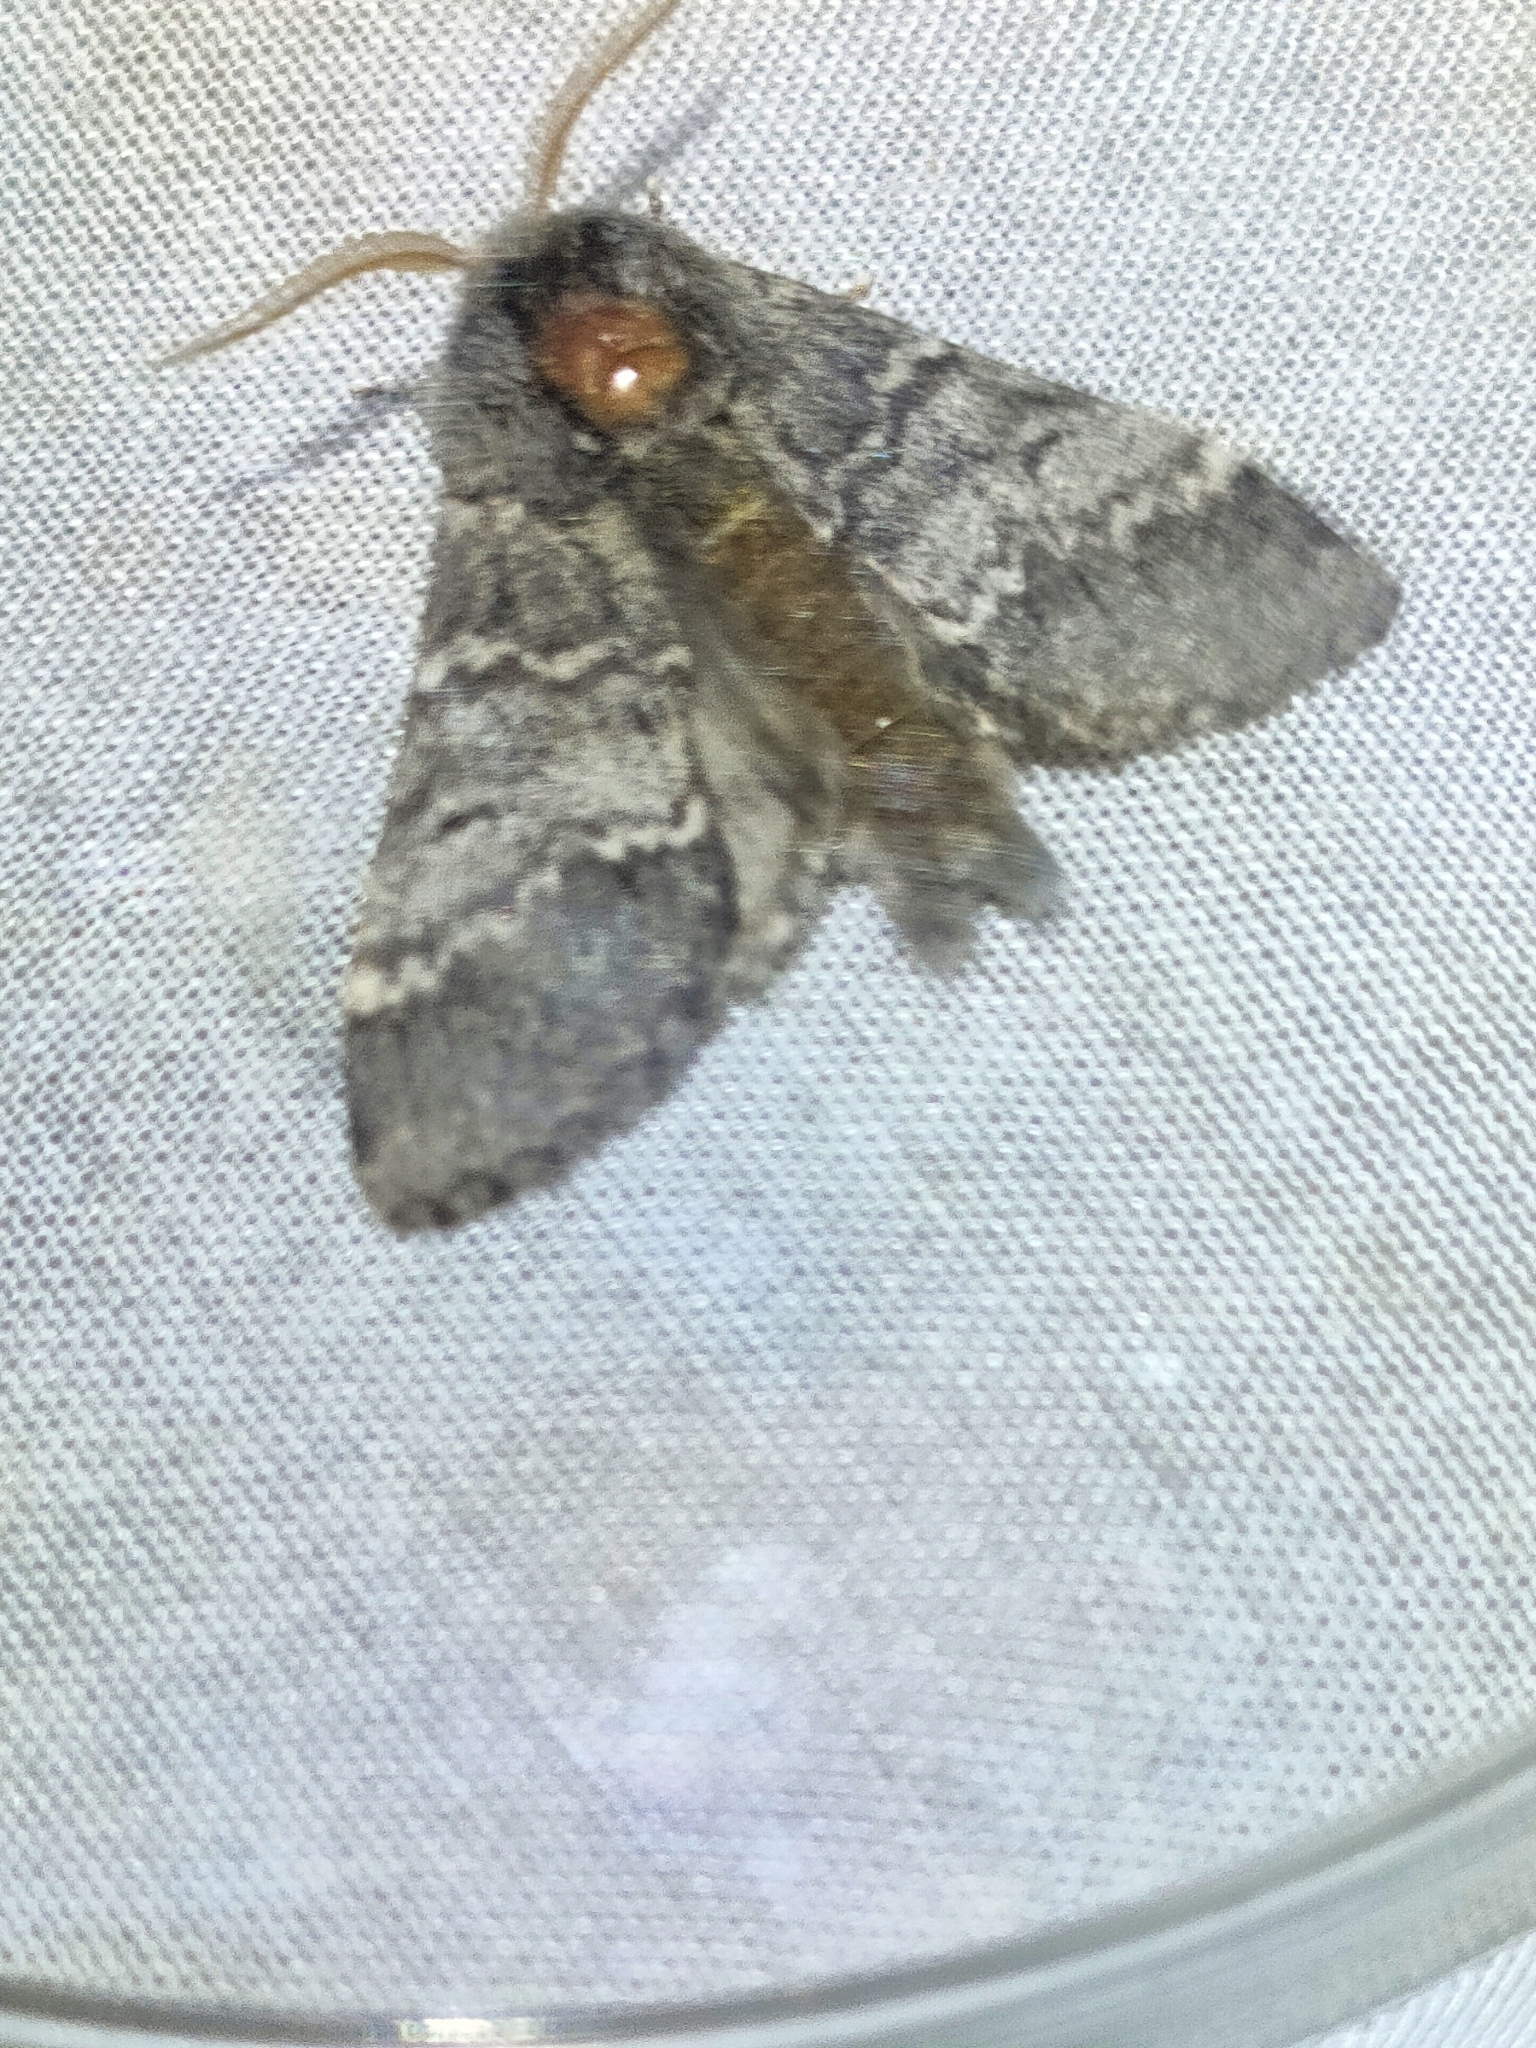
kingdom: Animalia
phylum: Arthropoda
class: Insecta
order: Lepidoptera
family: Notodontidae
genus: Drymonia
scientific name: Drymonia ruficornis
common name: Lunar marbled brown
